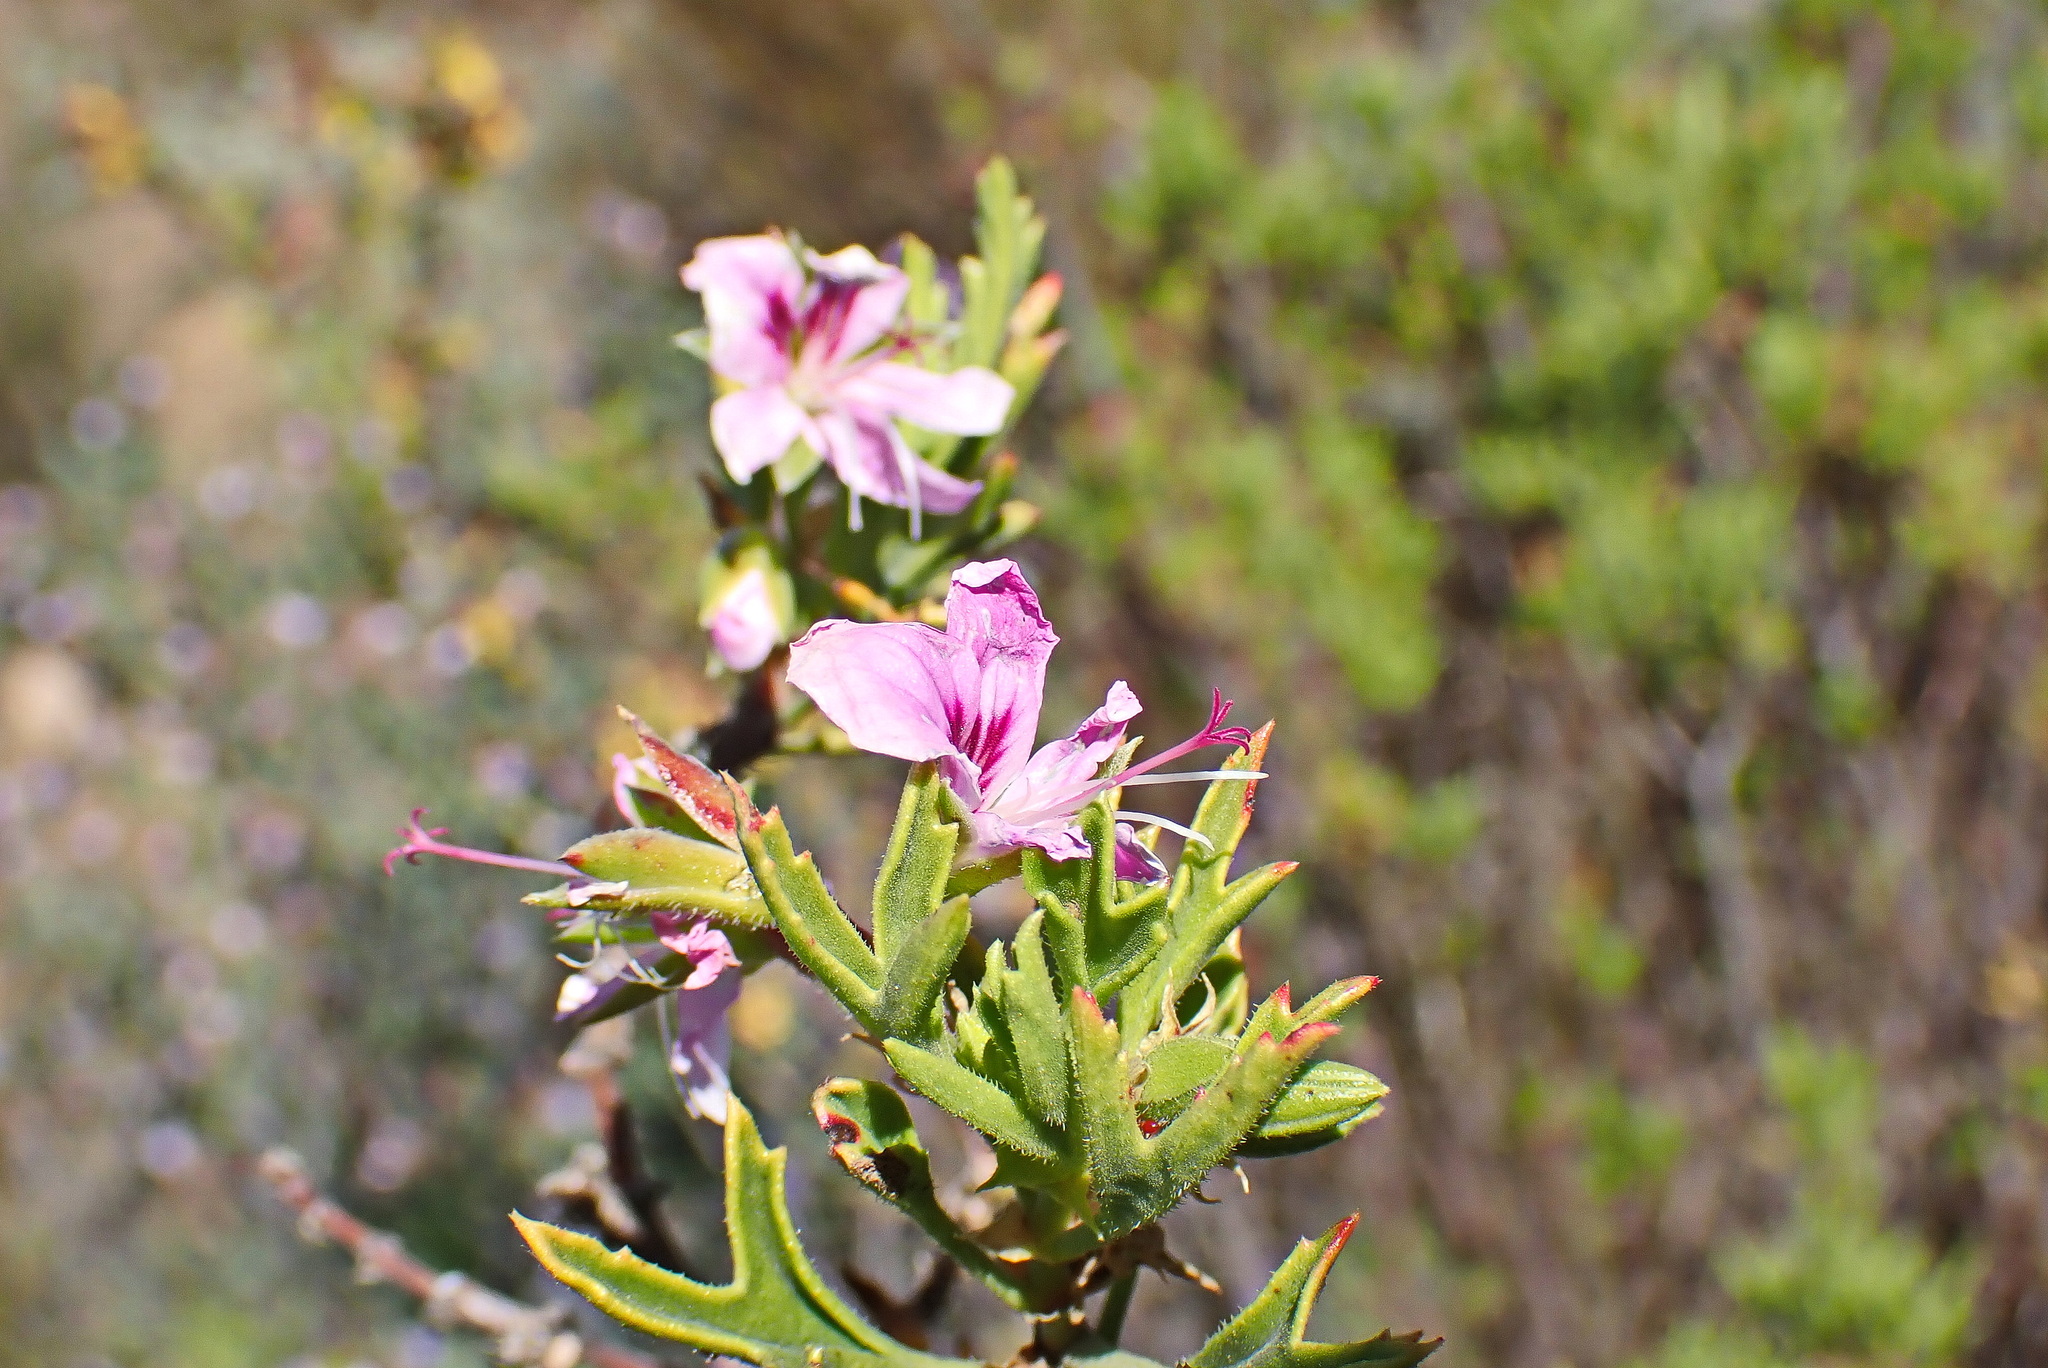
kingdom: Plantae
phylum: Tracheophyta
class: Magnoliopsida
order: Geraniales
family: Geraniaceae
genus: Pelargonium
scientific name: Pelargonium scabrum
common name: Apricot geranium
